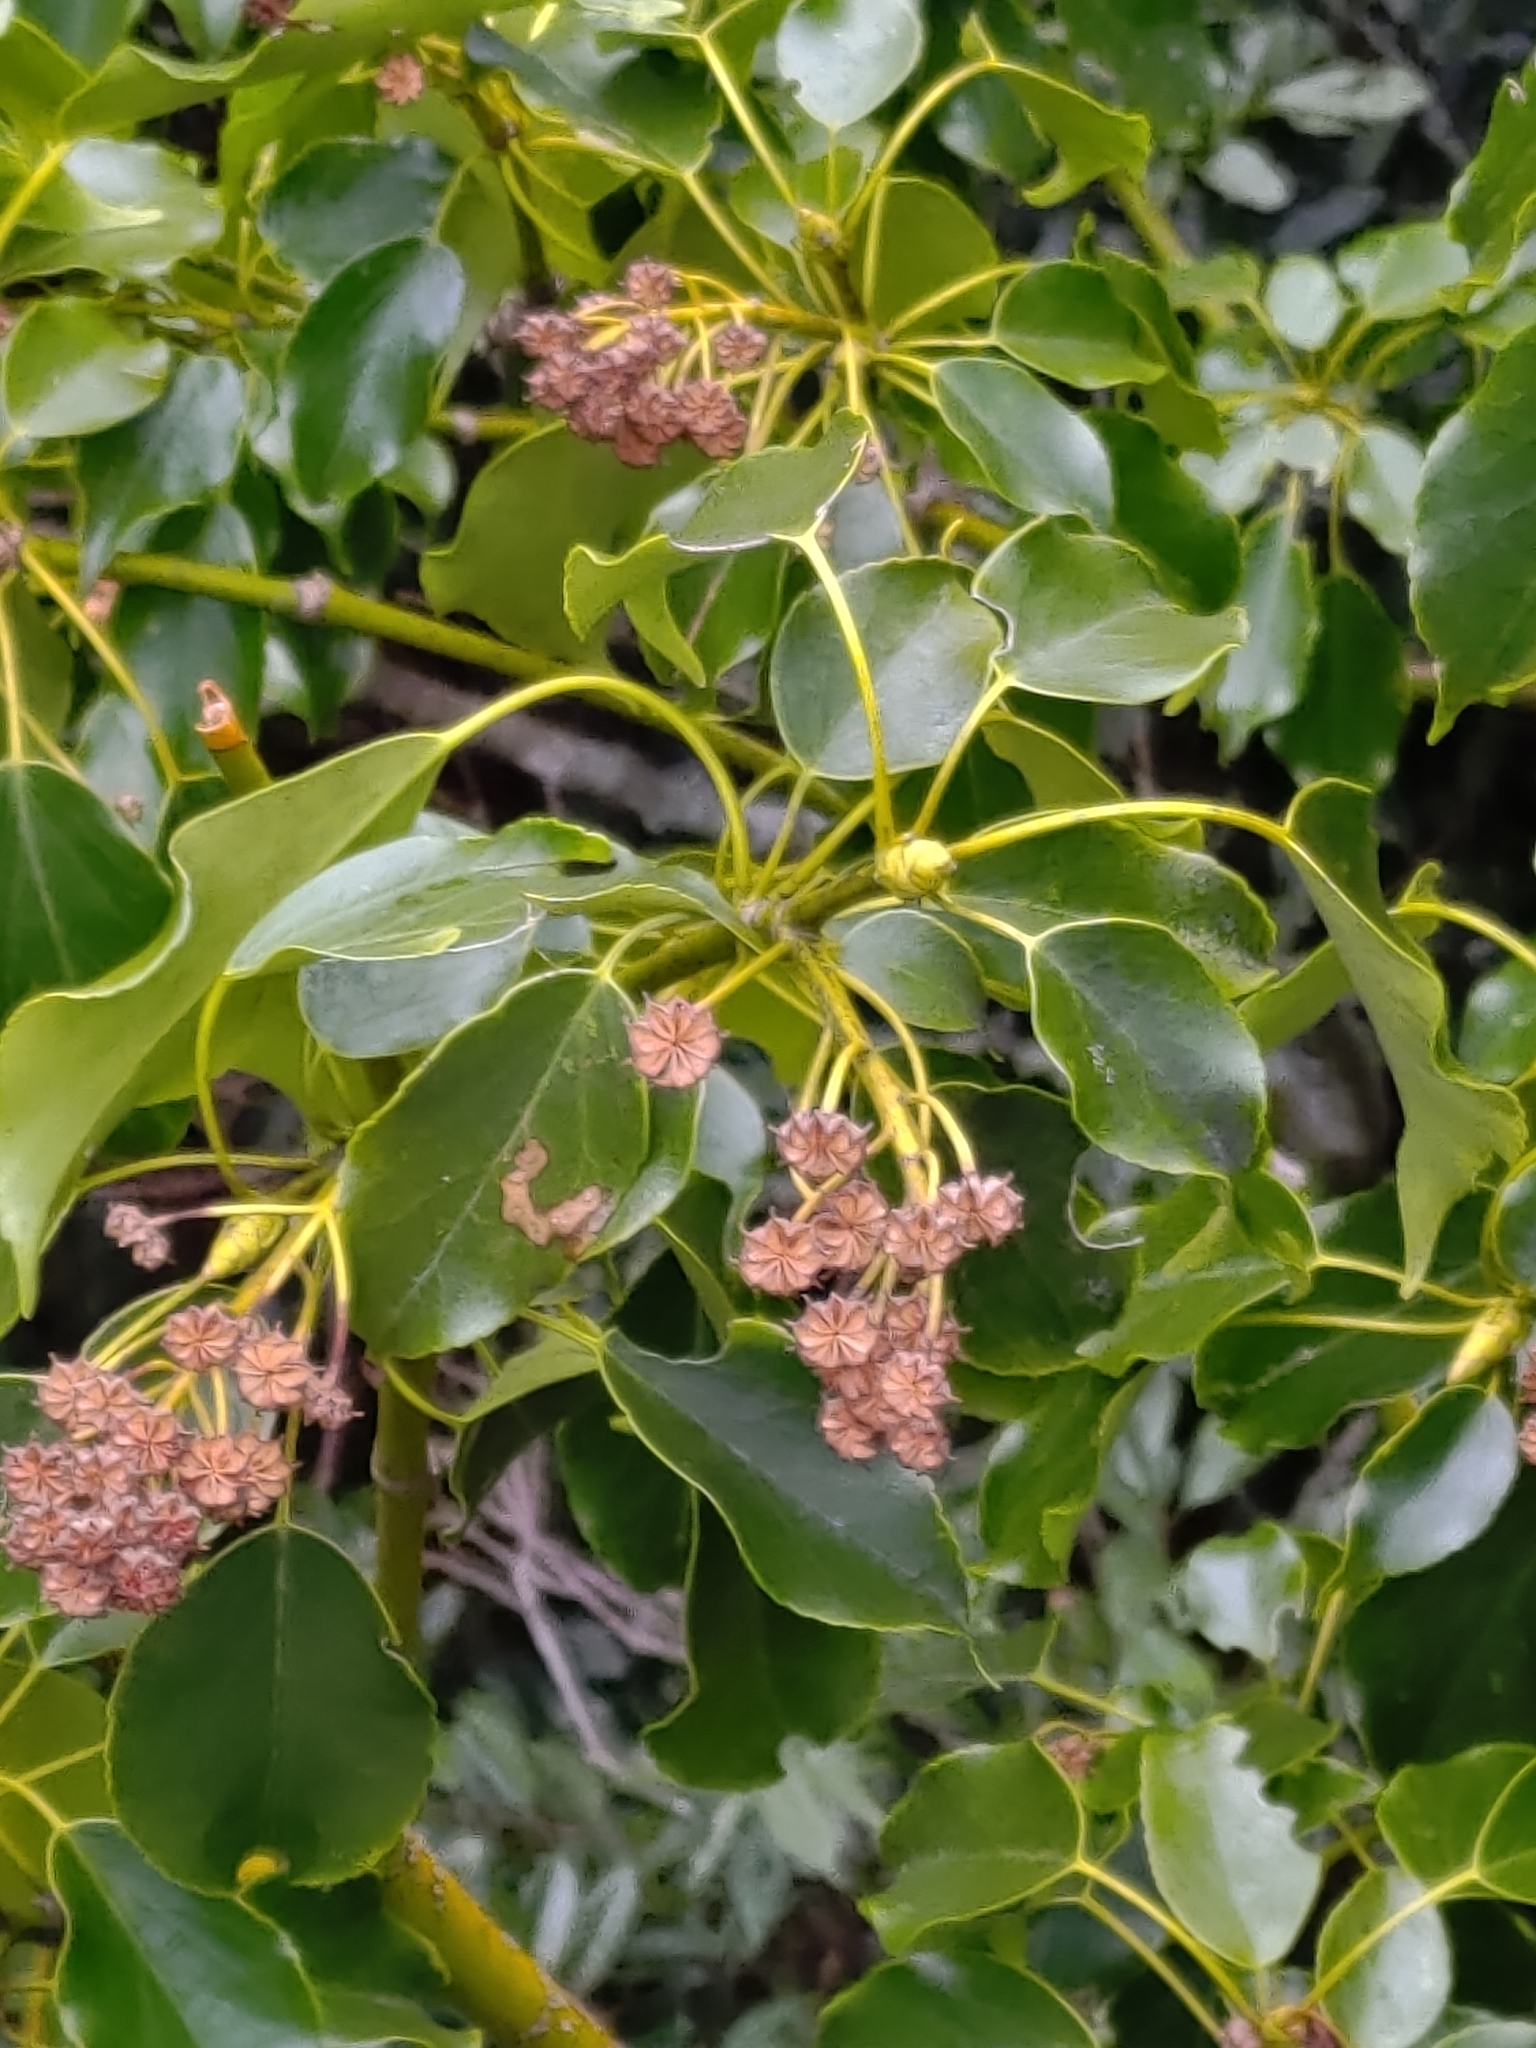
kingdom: Plantae
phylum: Tracheophyta
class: Magnoliopsida
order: Trochodendrales
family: Trochodendraceae
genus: Trochodendron
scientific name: Trochodendron aralioides
